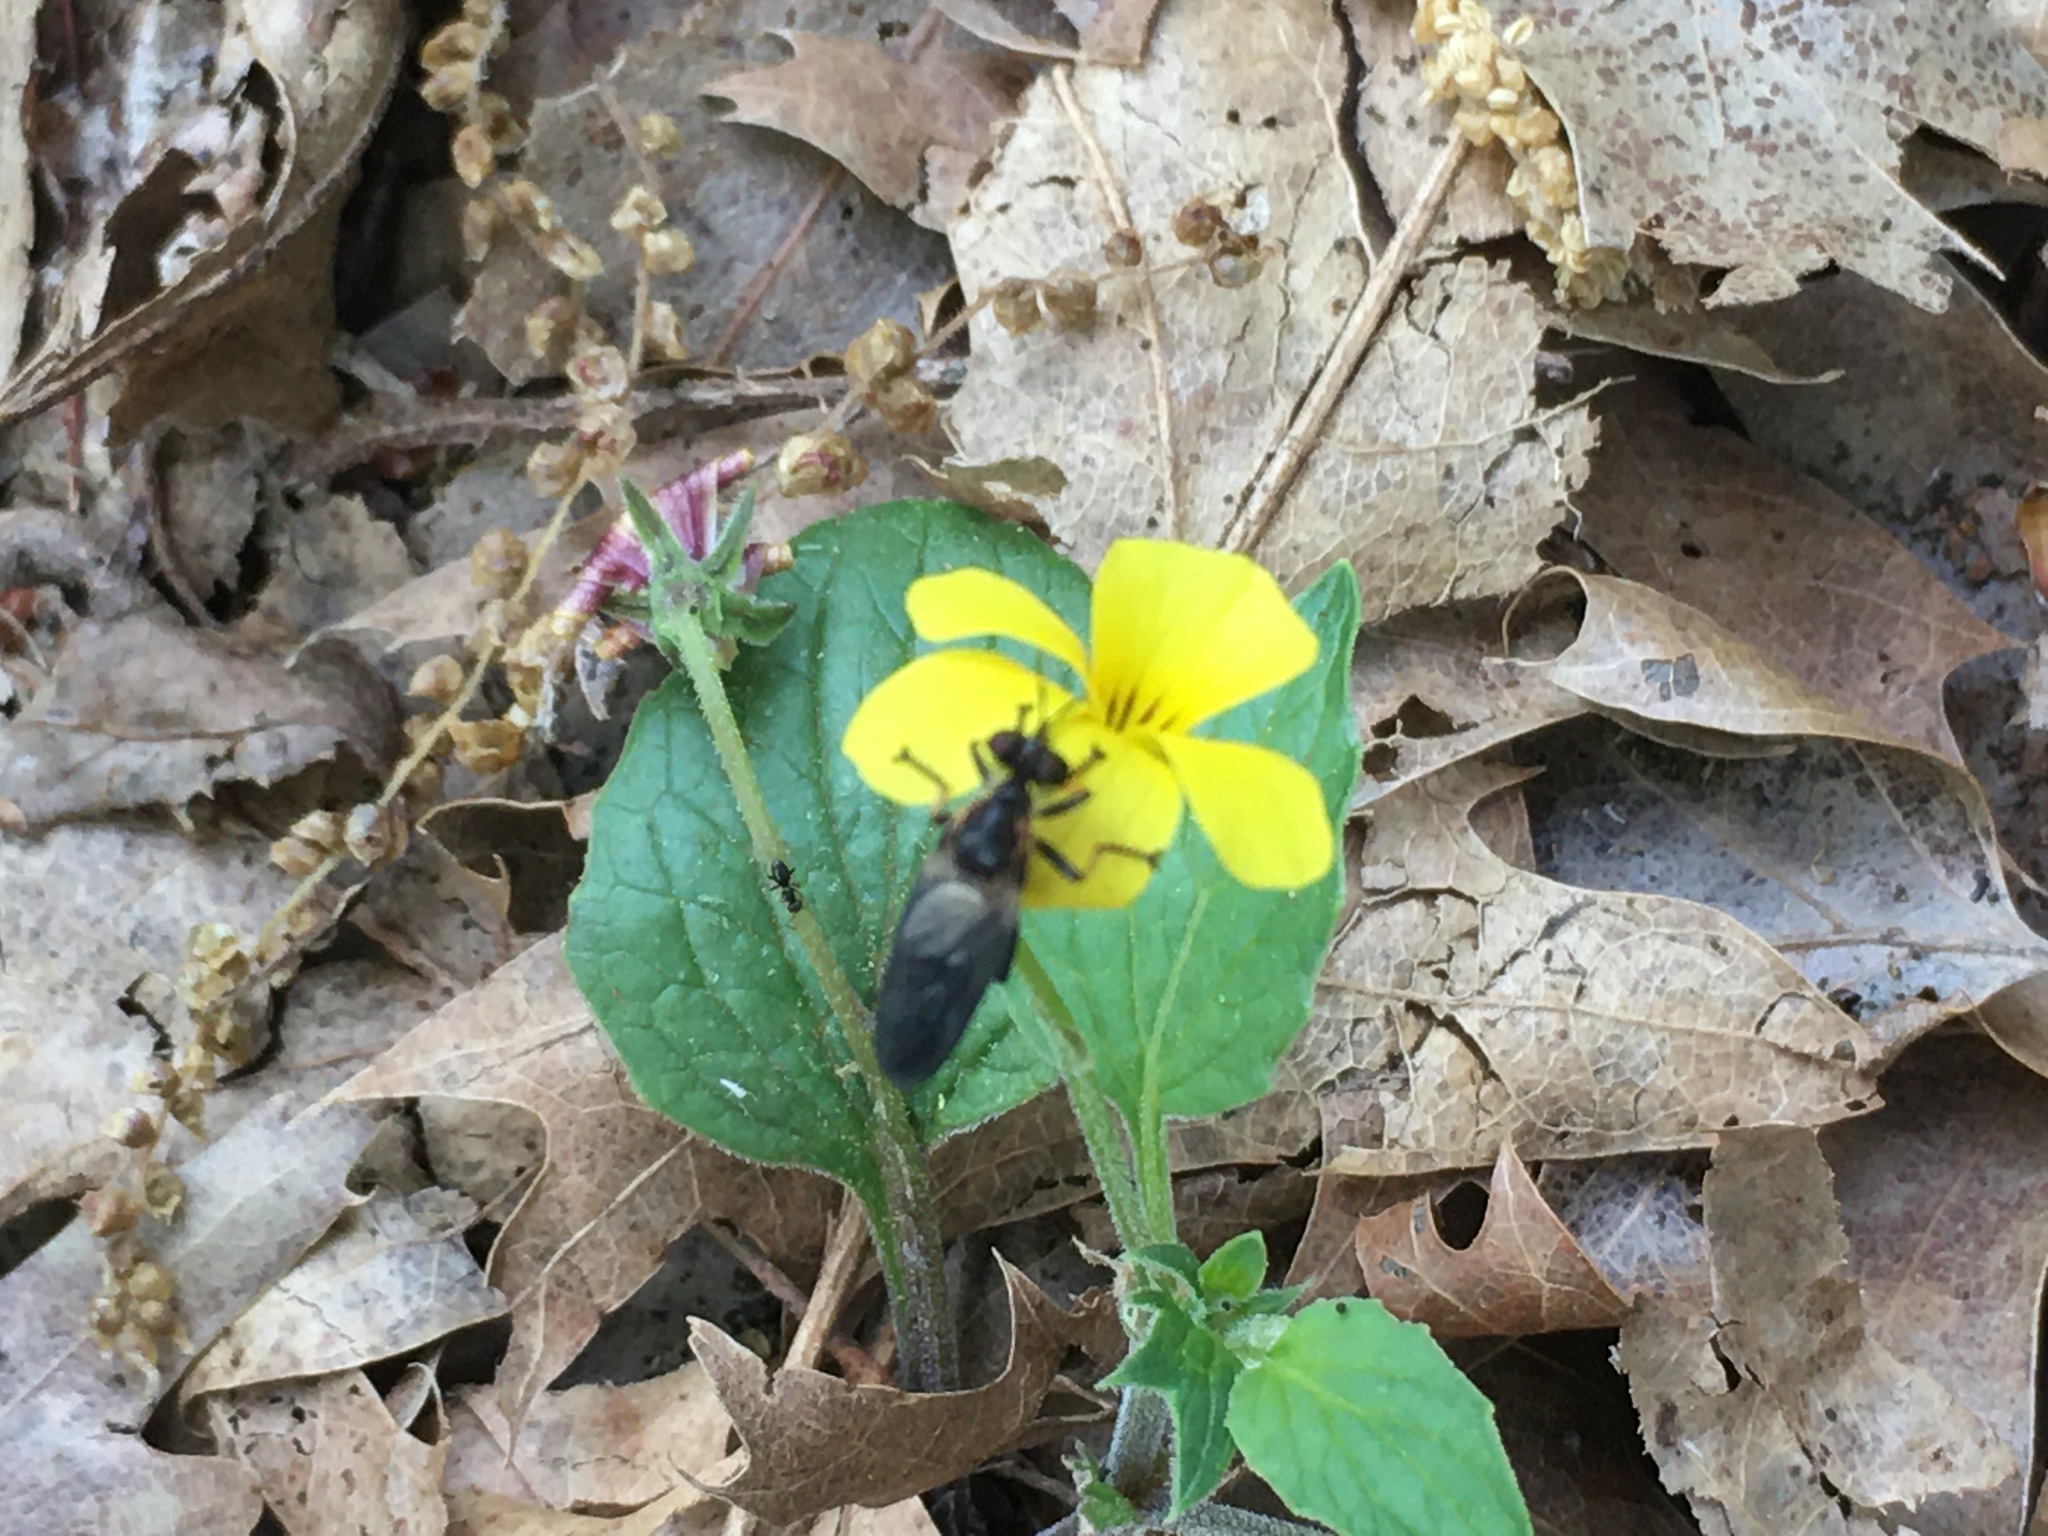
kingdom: Plantae
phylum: Tracheophyta
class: Magnoliopsida
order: Malpighiales
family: Violaceae
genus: Viola
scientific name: Viola purpurea
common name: Pine violet
